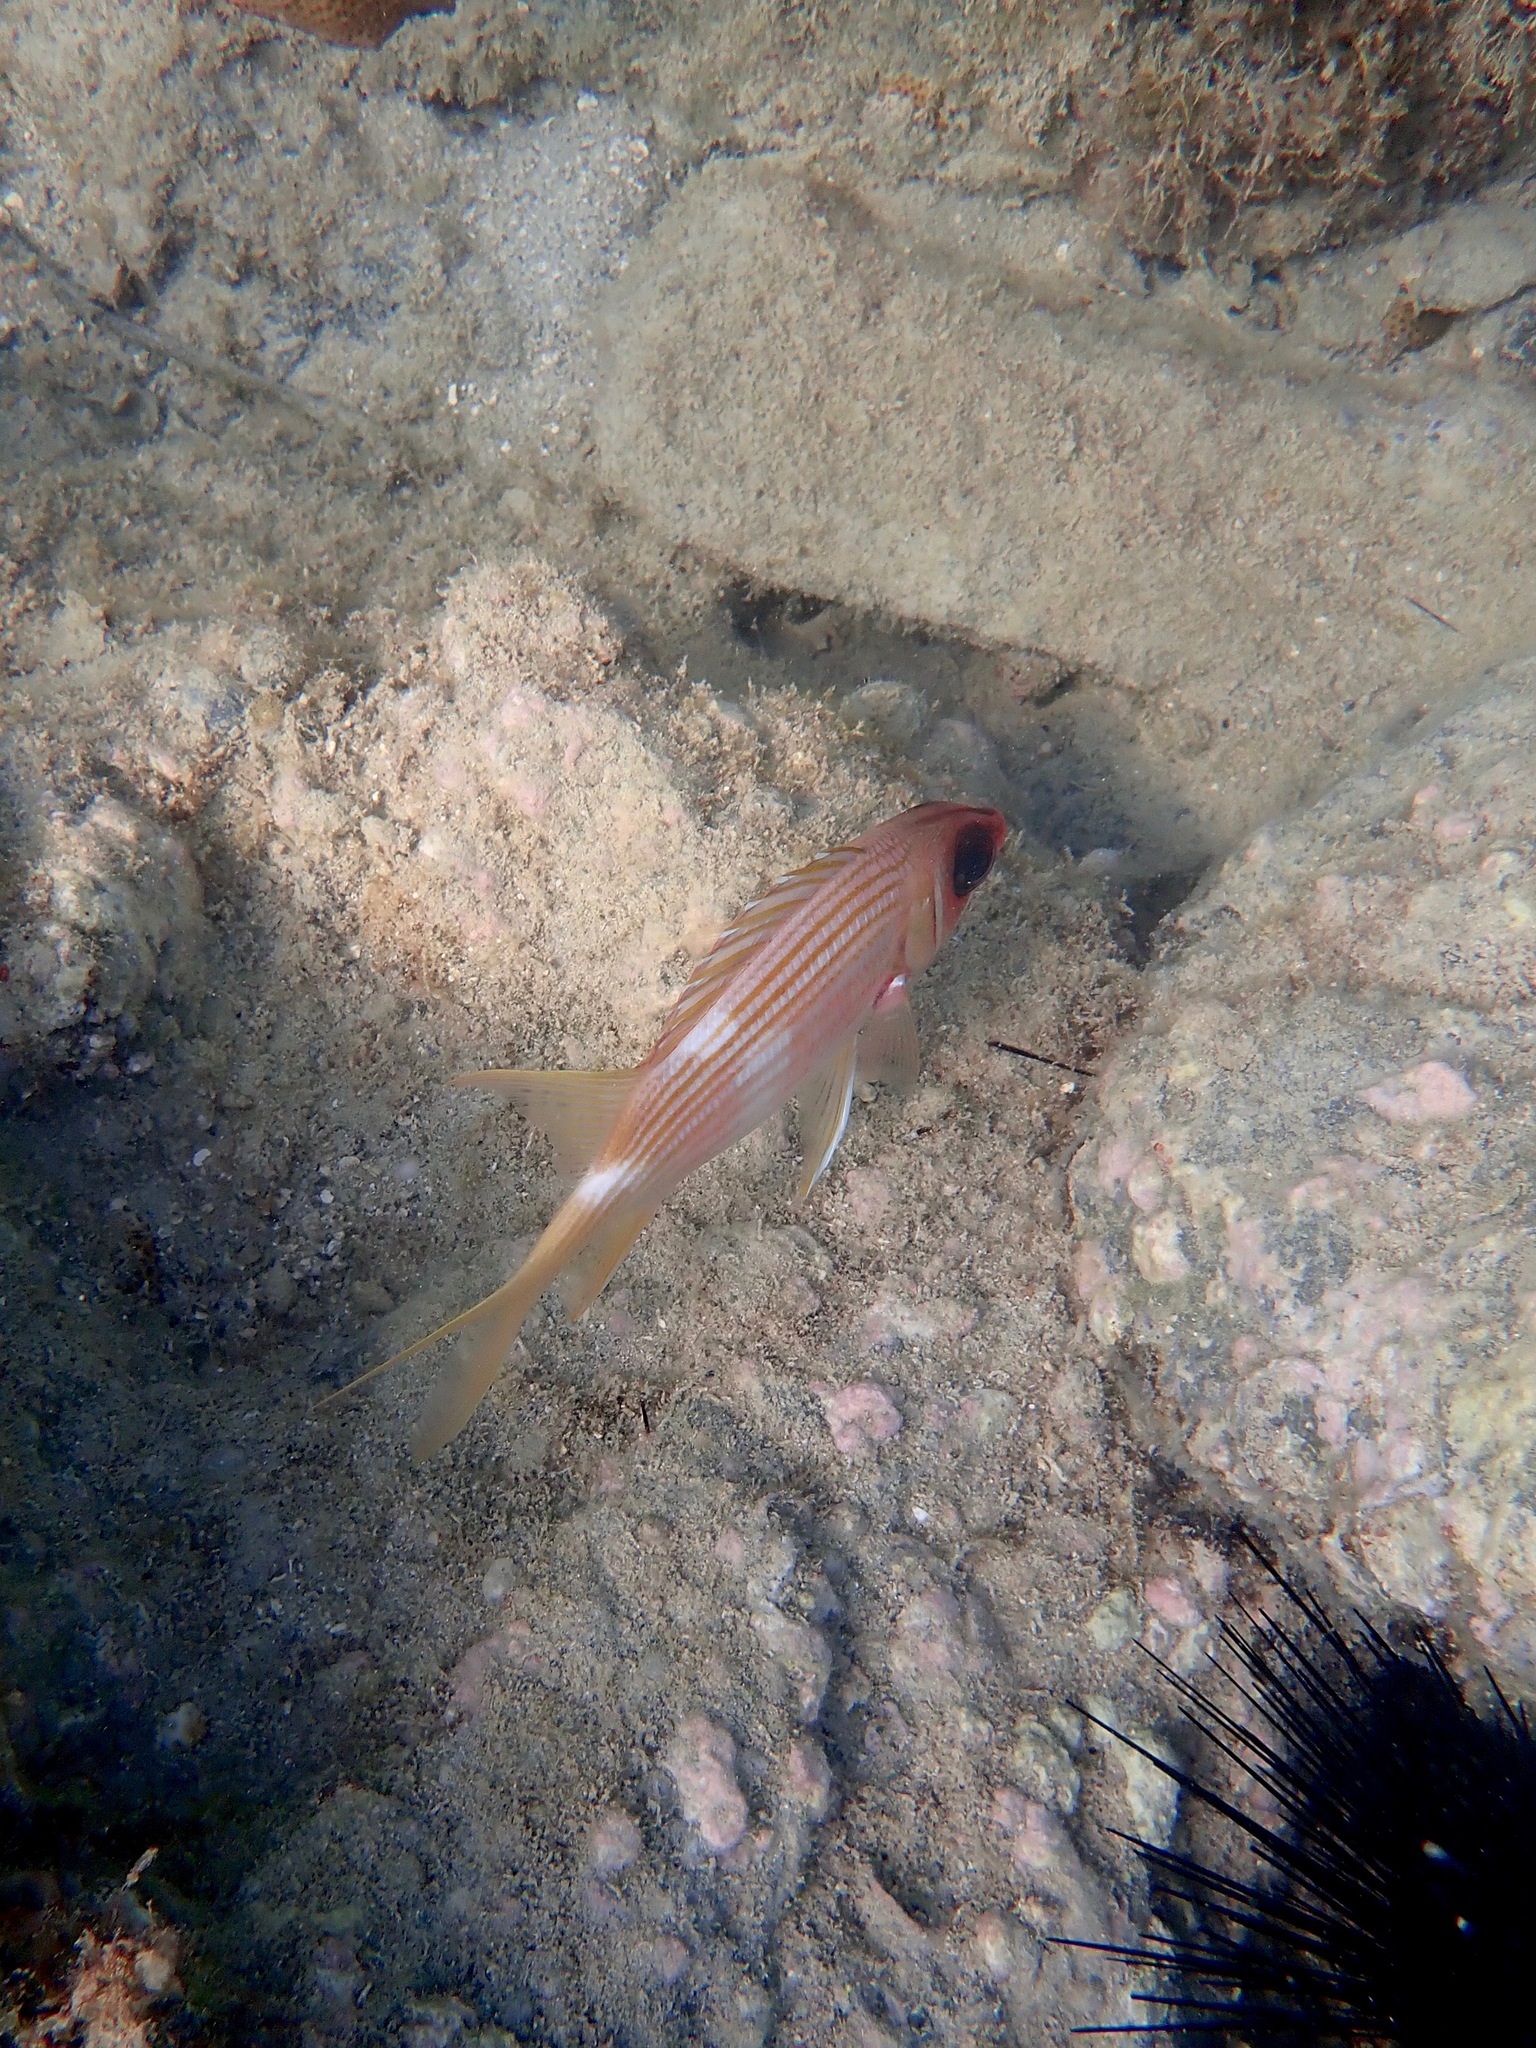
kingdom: Animalia
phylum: Chordata
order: Beryciformes
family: Holocentridae
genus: Holocentrus
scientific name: Holocentrus rufus
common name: Longspine squirrelfish
